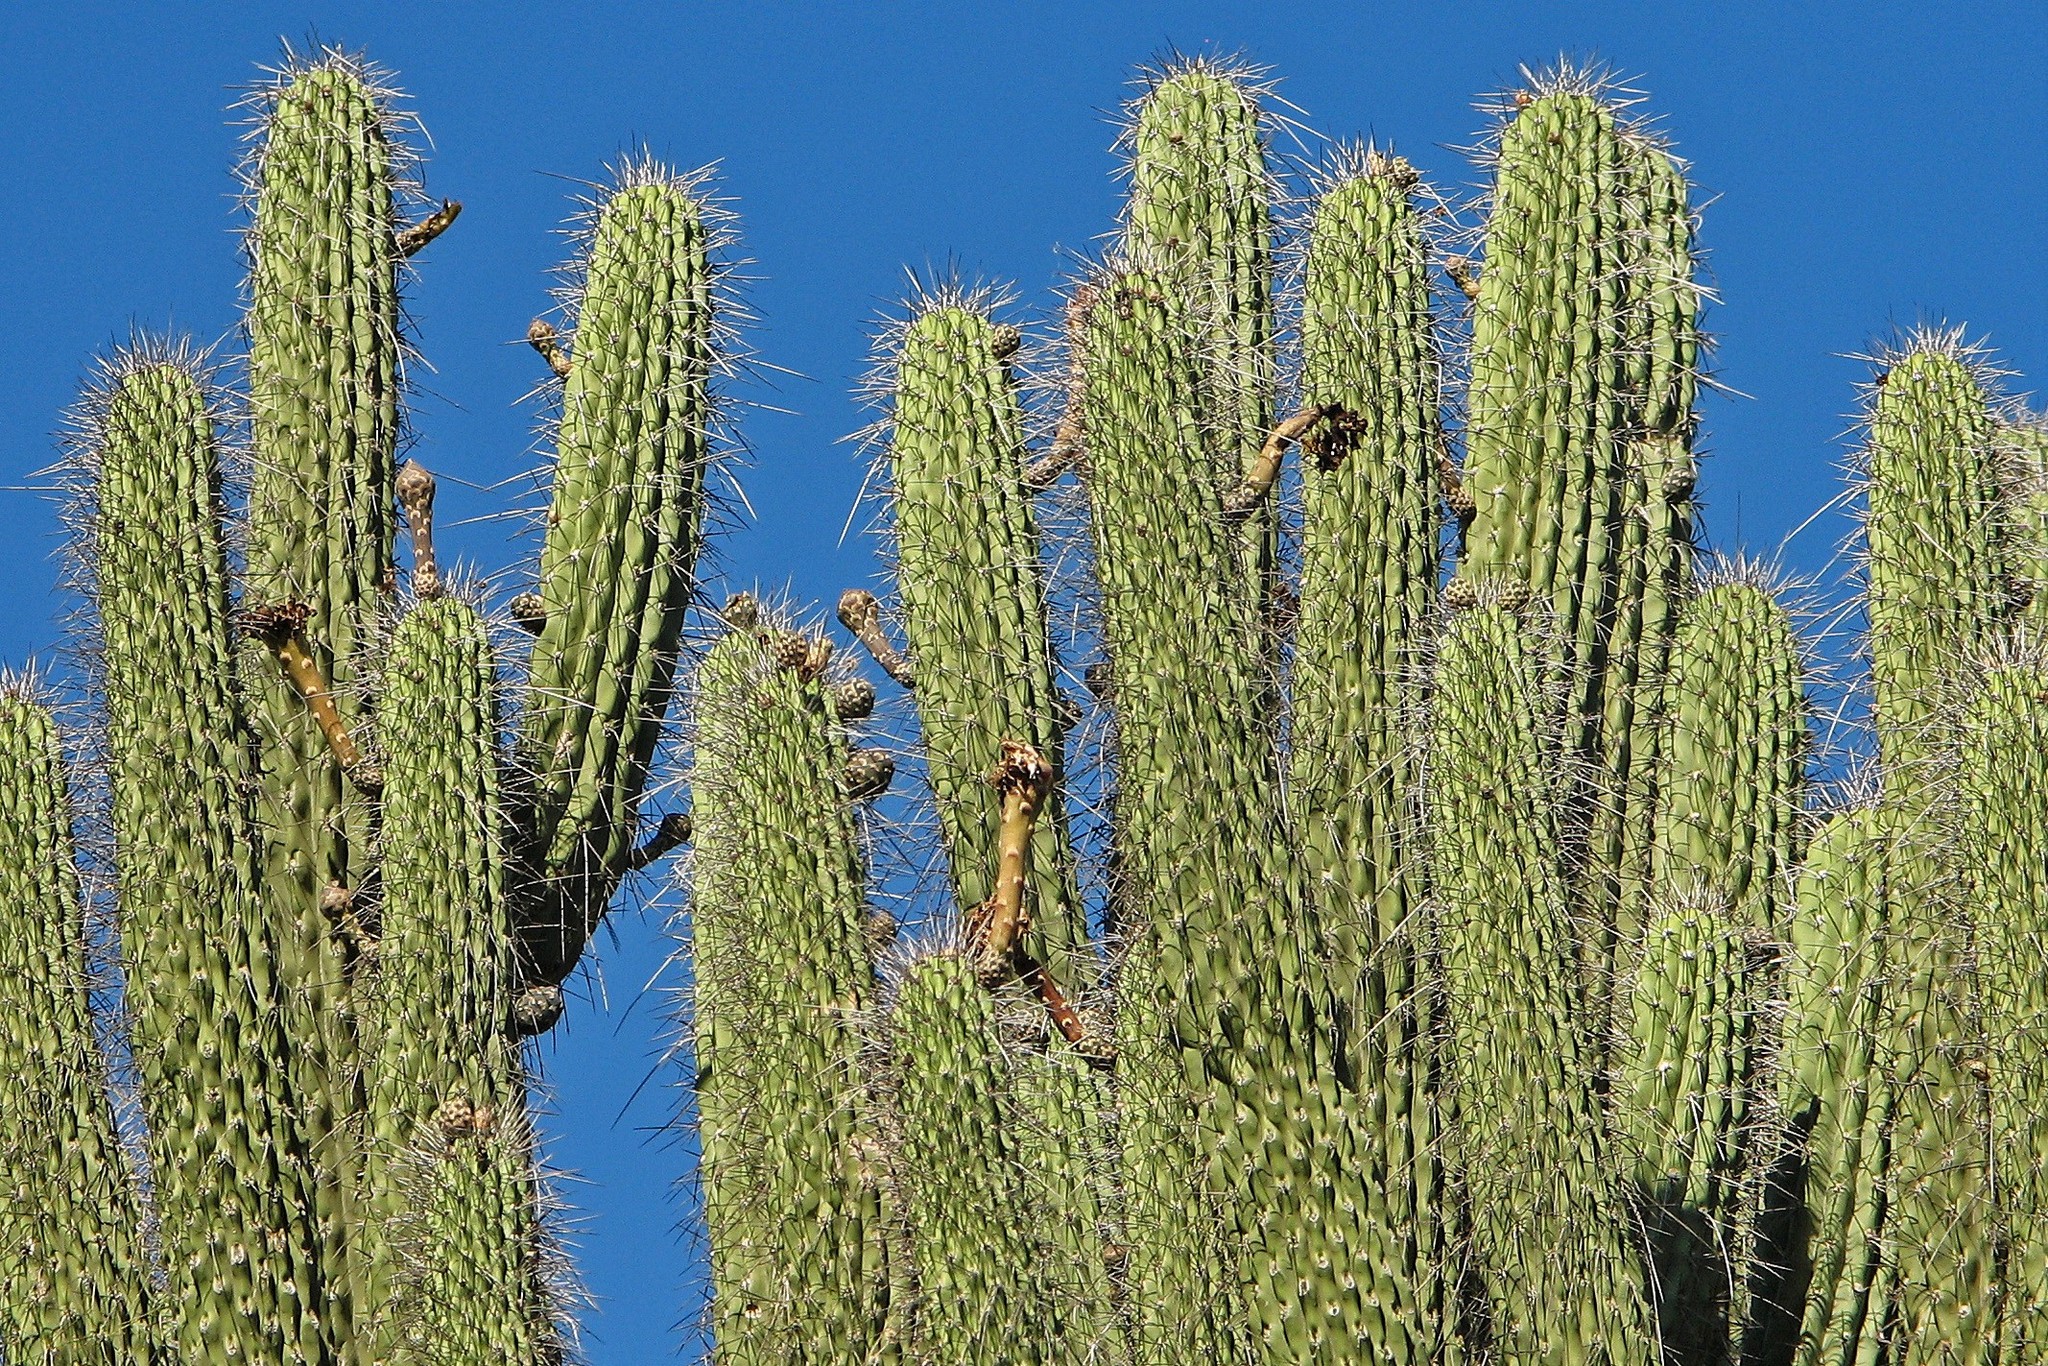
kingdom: Plantae
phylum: Tracheophyta
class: Magnoliopsida
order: Caryophyllales
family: Cactaceae
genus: Stetsonia
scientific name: Stetsonia coryne
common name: Toothpick cactus
